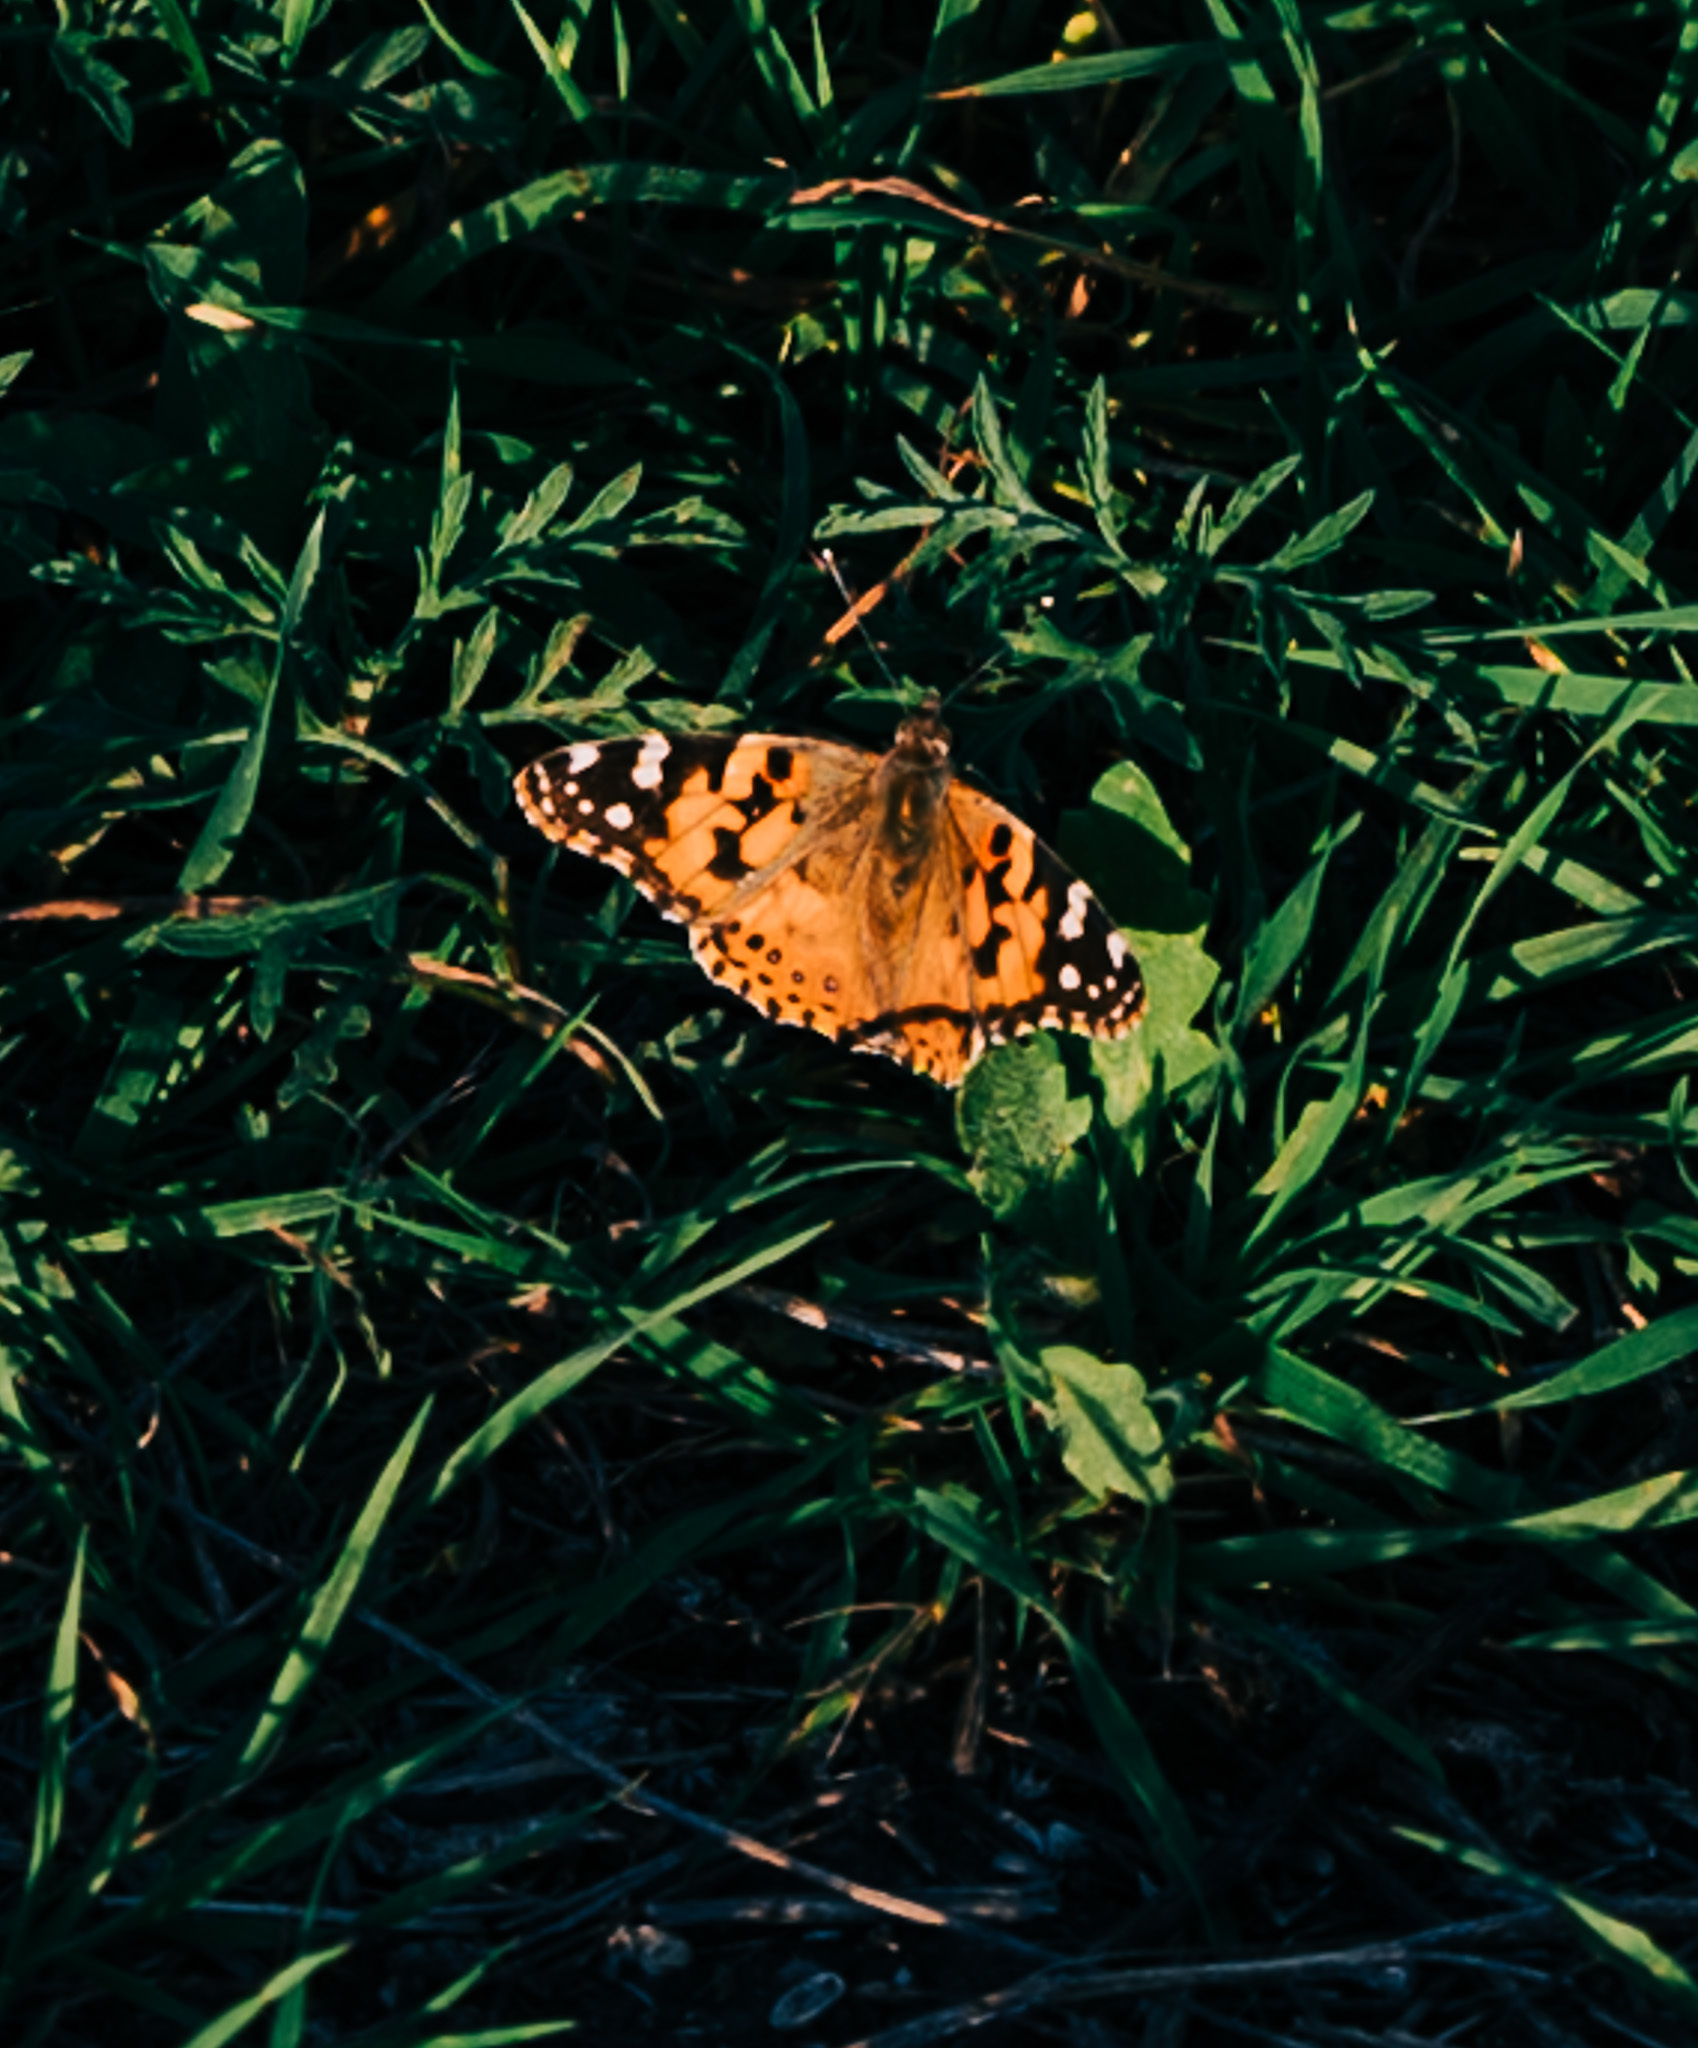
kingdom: Animalia
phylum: Arthropoda
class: Insecta
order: Lepidoptera
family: Nymphalidae
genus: Vanessa
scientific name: Vanessa cardui
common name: Painted lady
